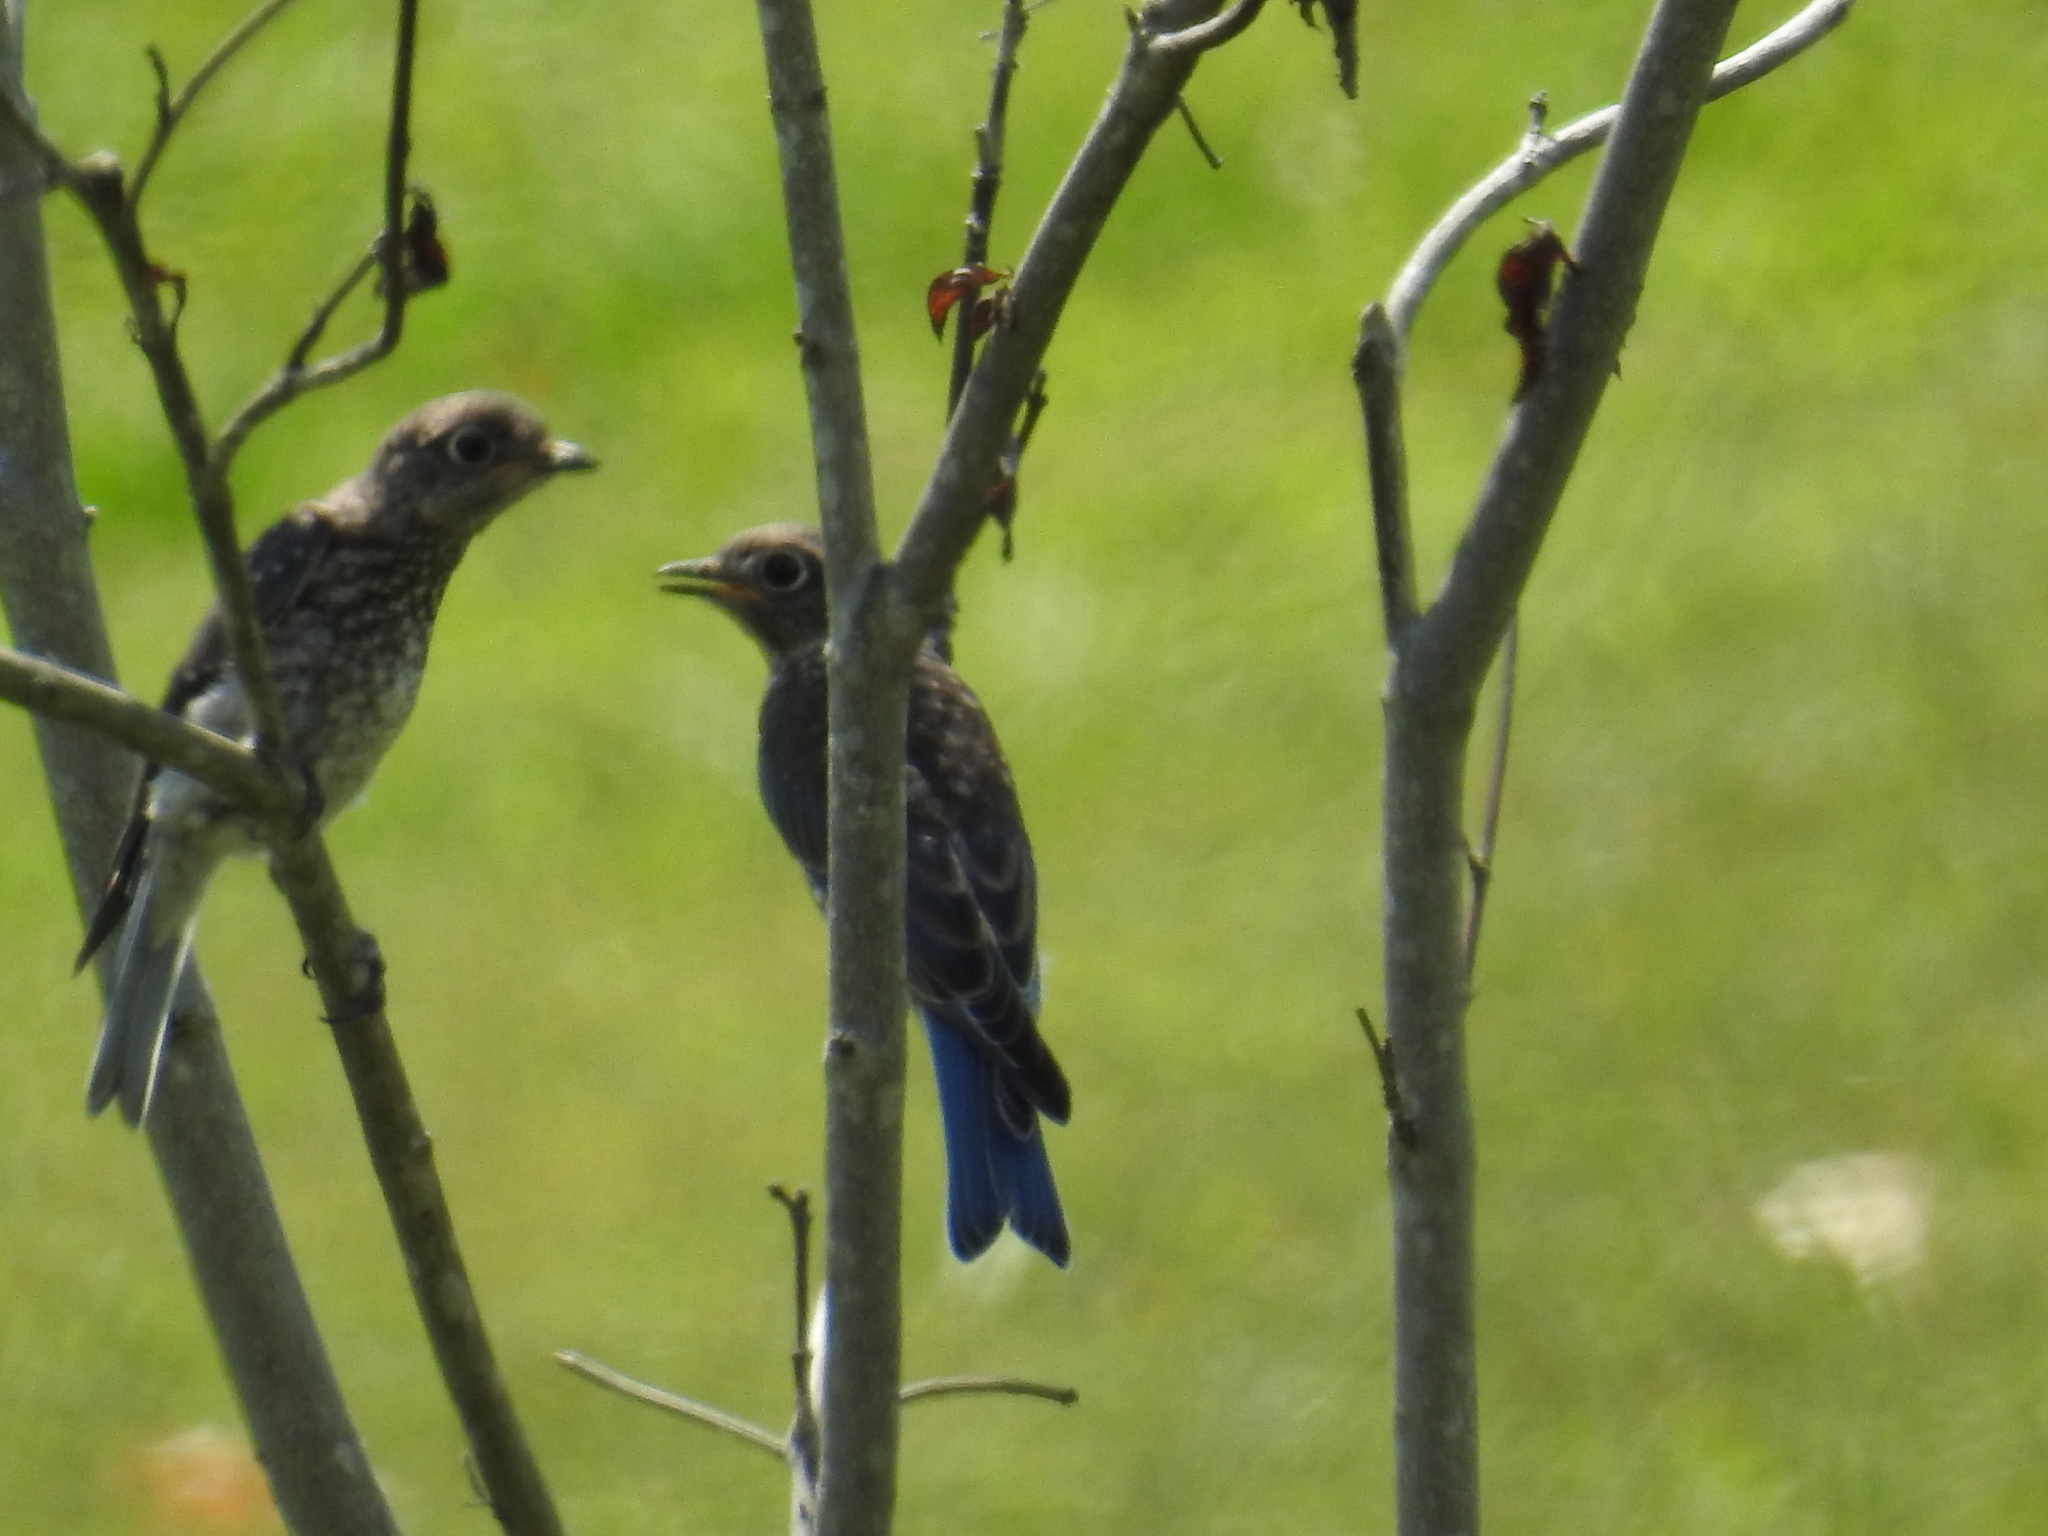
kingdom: Animalia
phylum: Chordata
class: Aves
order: Passeriformes
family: Turdidae
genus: Sialia
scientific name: Sialia sialis
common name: Eastern bluebird
